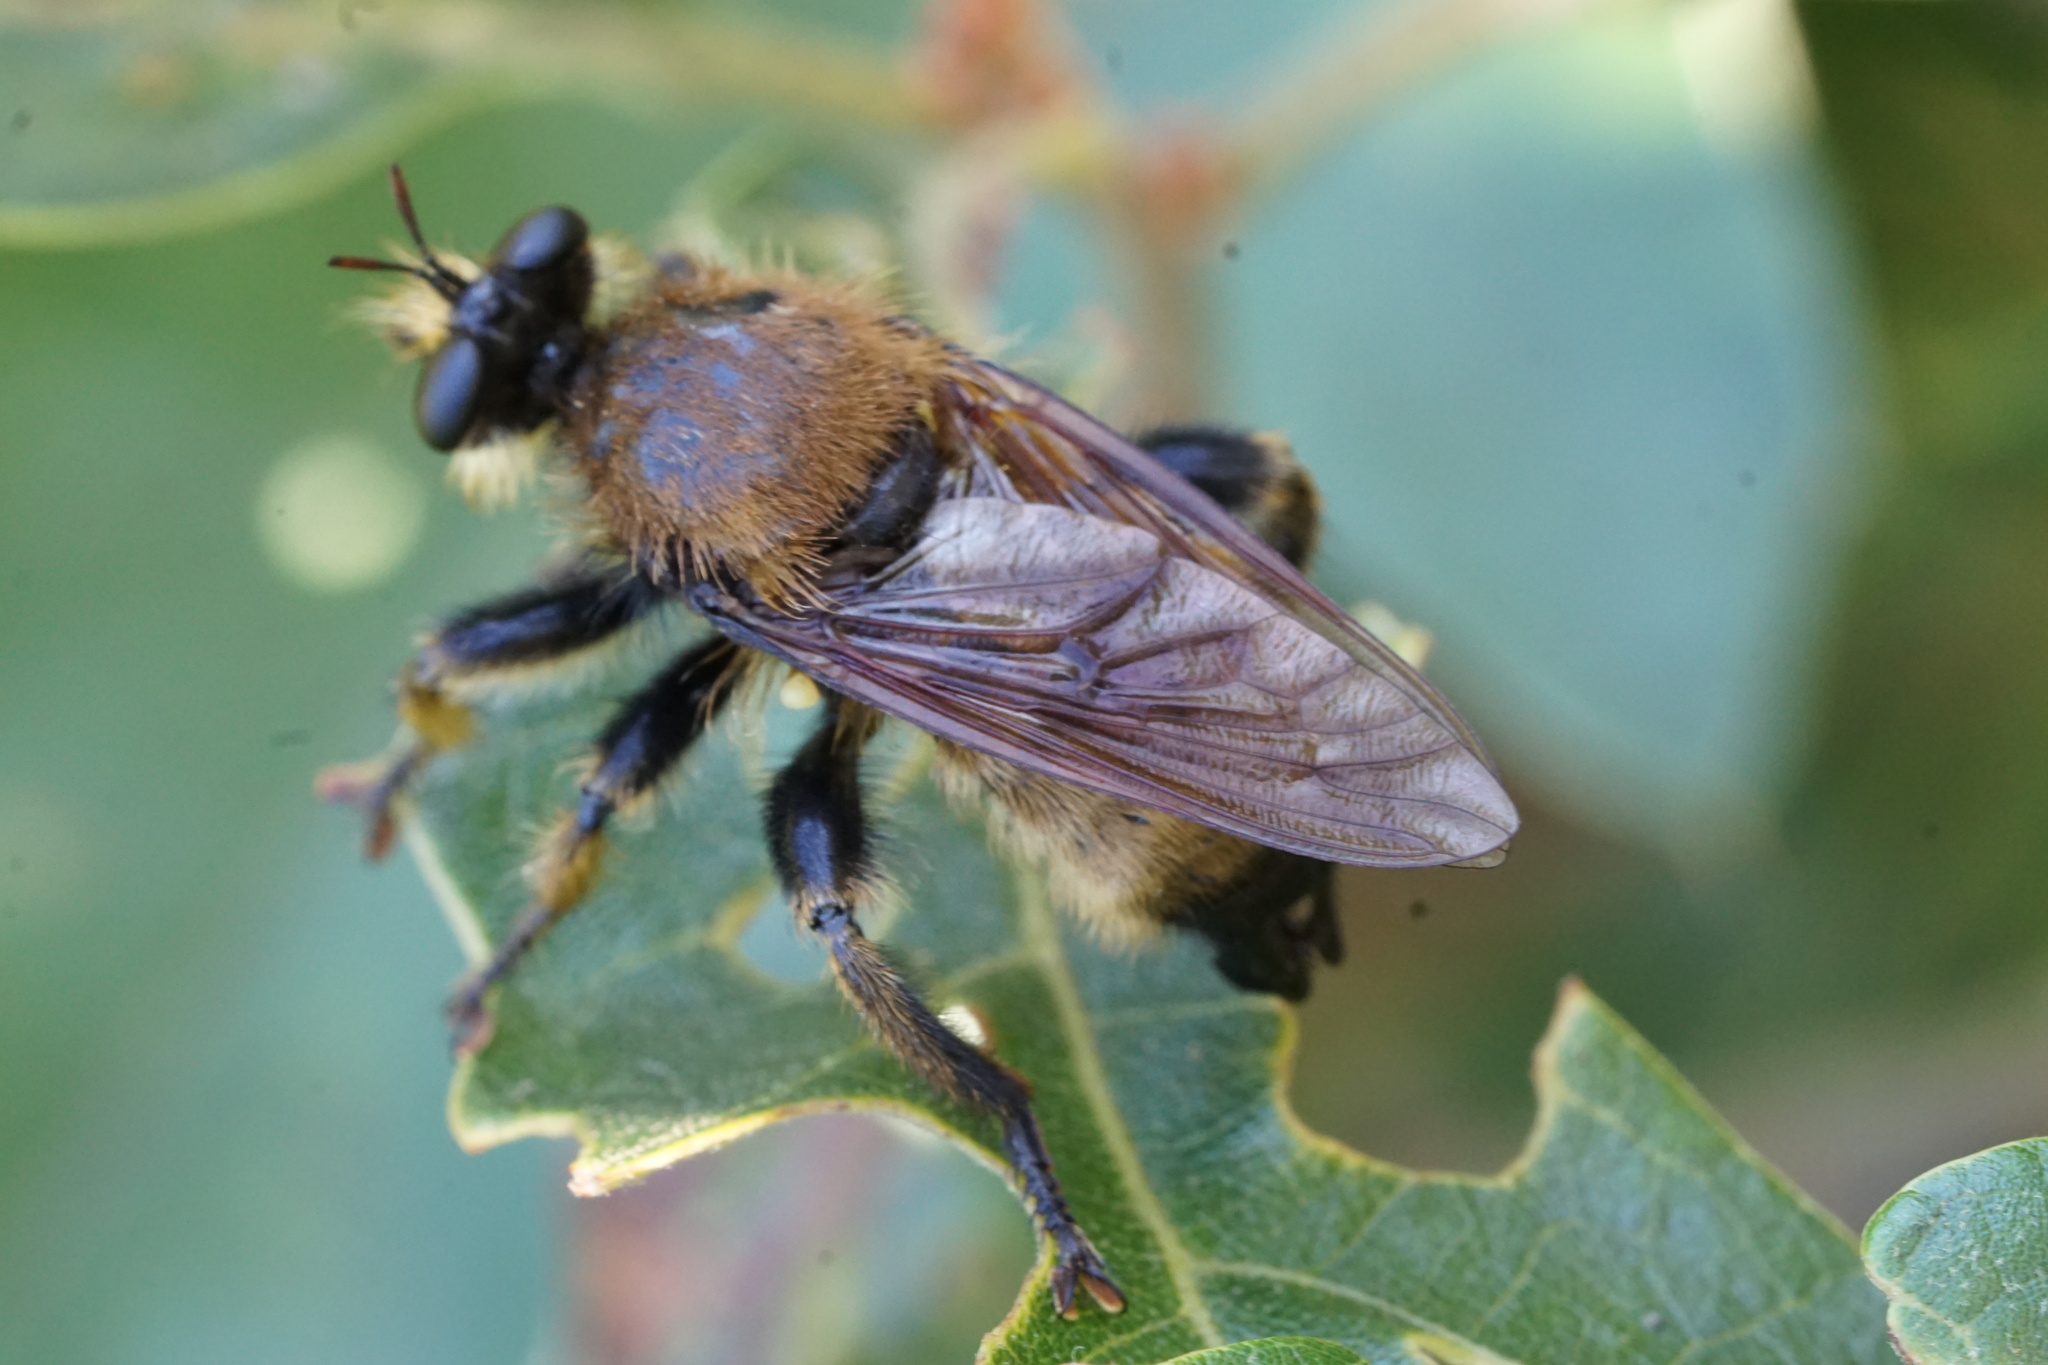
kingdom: Animalia
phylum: Arthropoda
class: Insecta
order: Diptera
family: Asilidae
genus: Laphria
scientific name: Laphria champlainii
